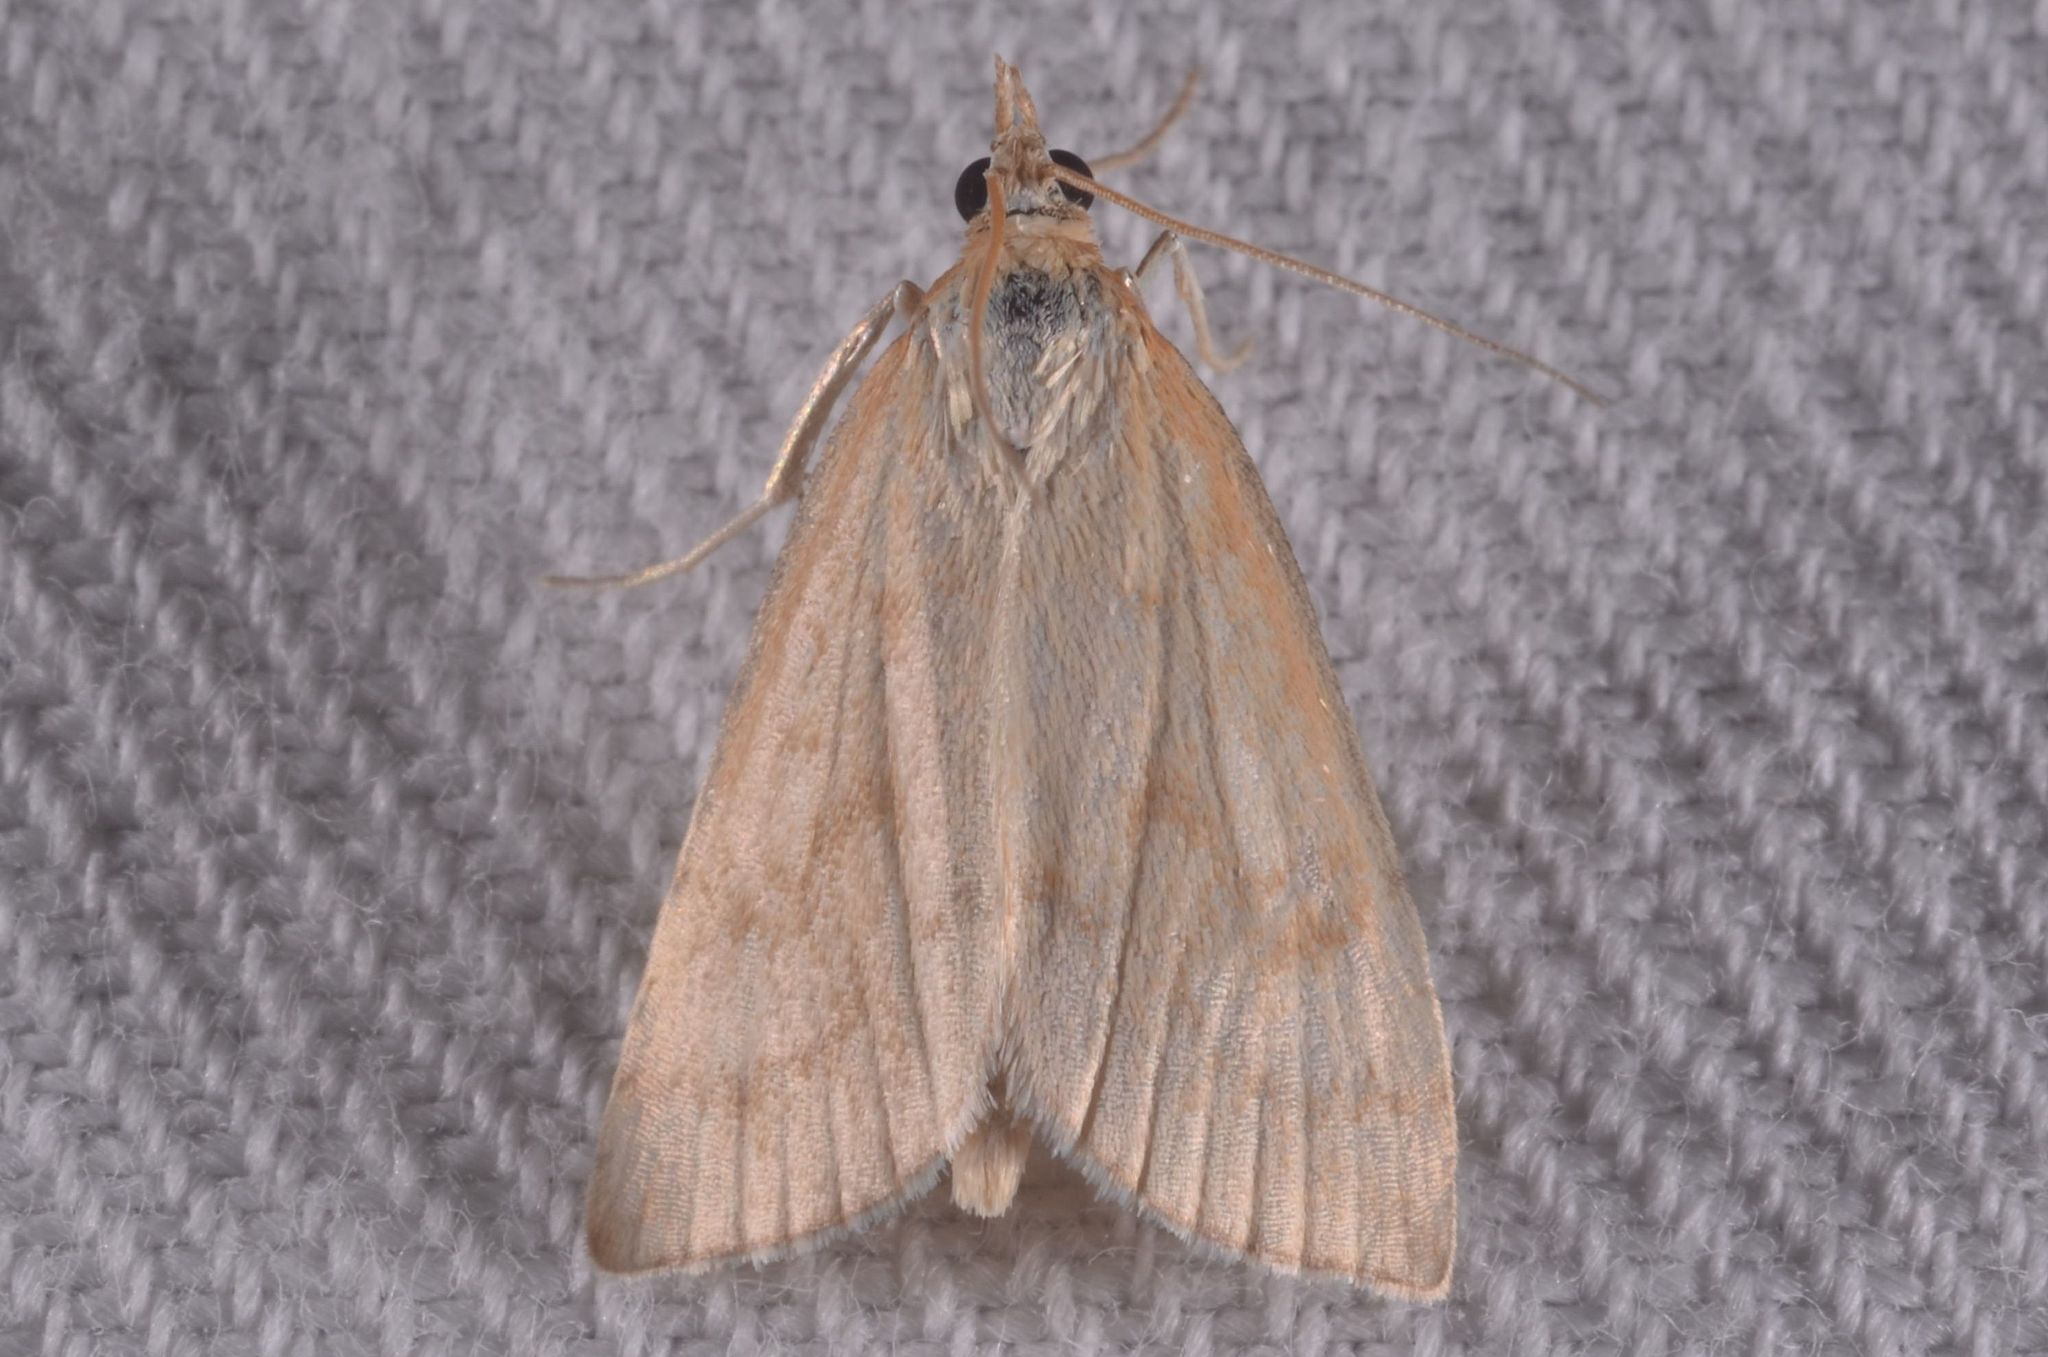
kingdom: Animalia
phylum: Arthropoda
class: Insecta
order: Lepidoptera
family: Crambidae
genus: Udea
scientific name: Udea lutealis
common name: Pale straw pearl
